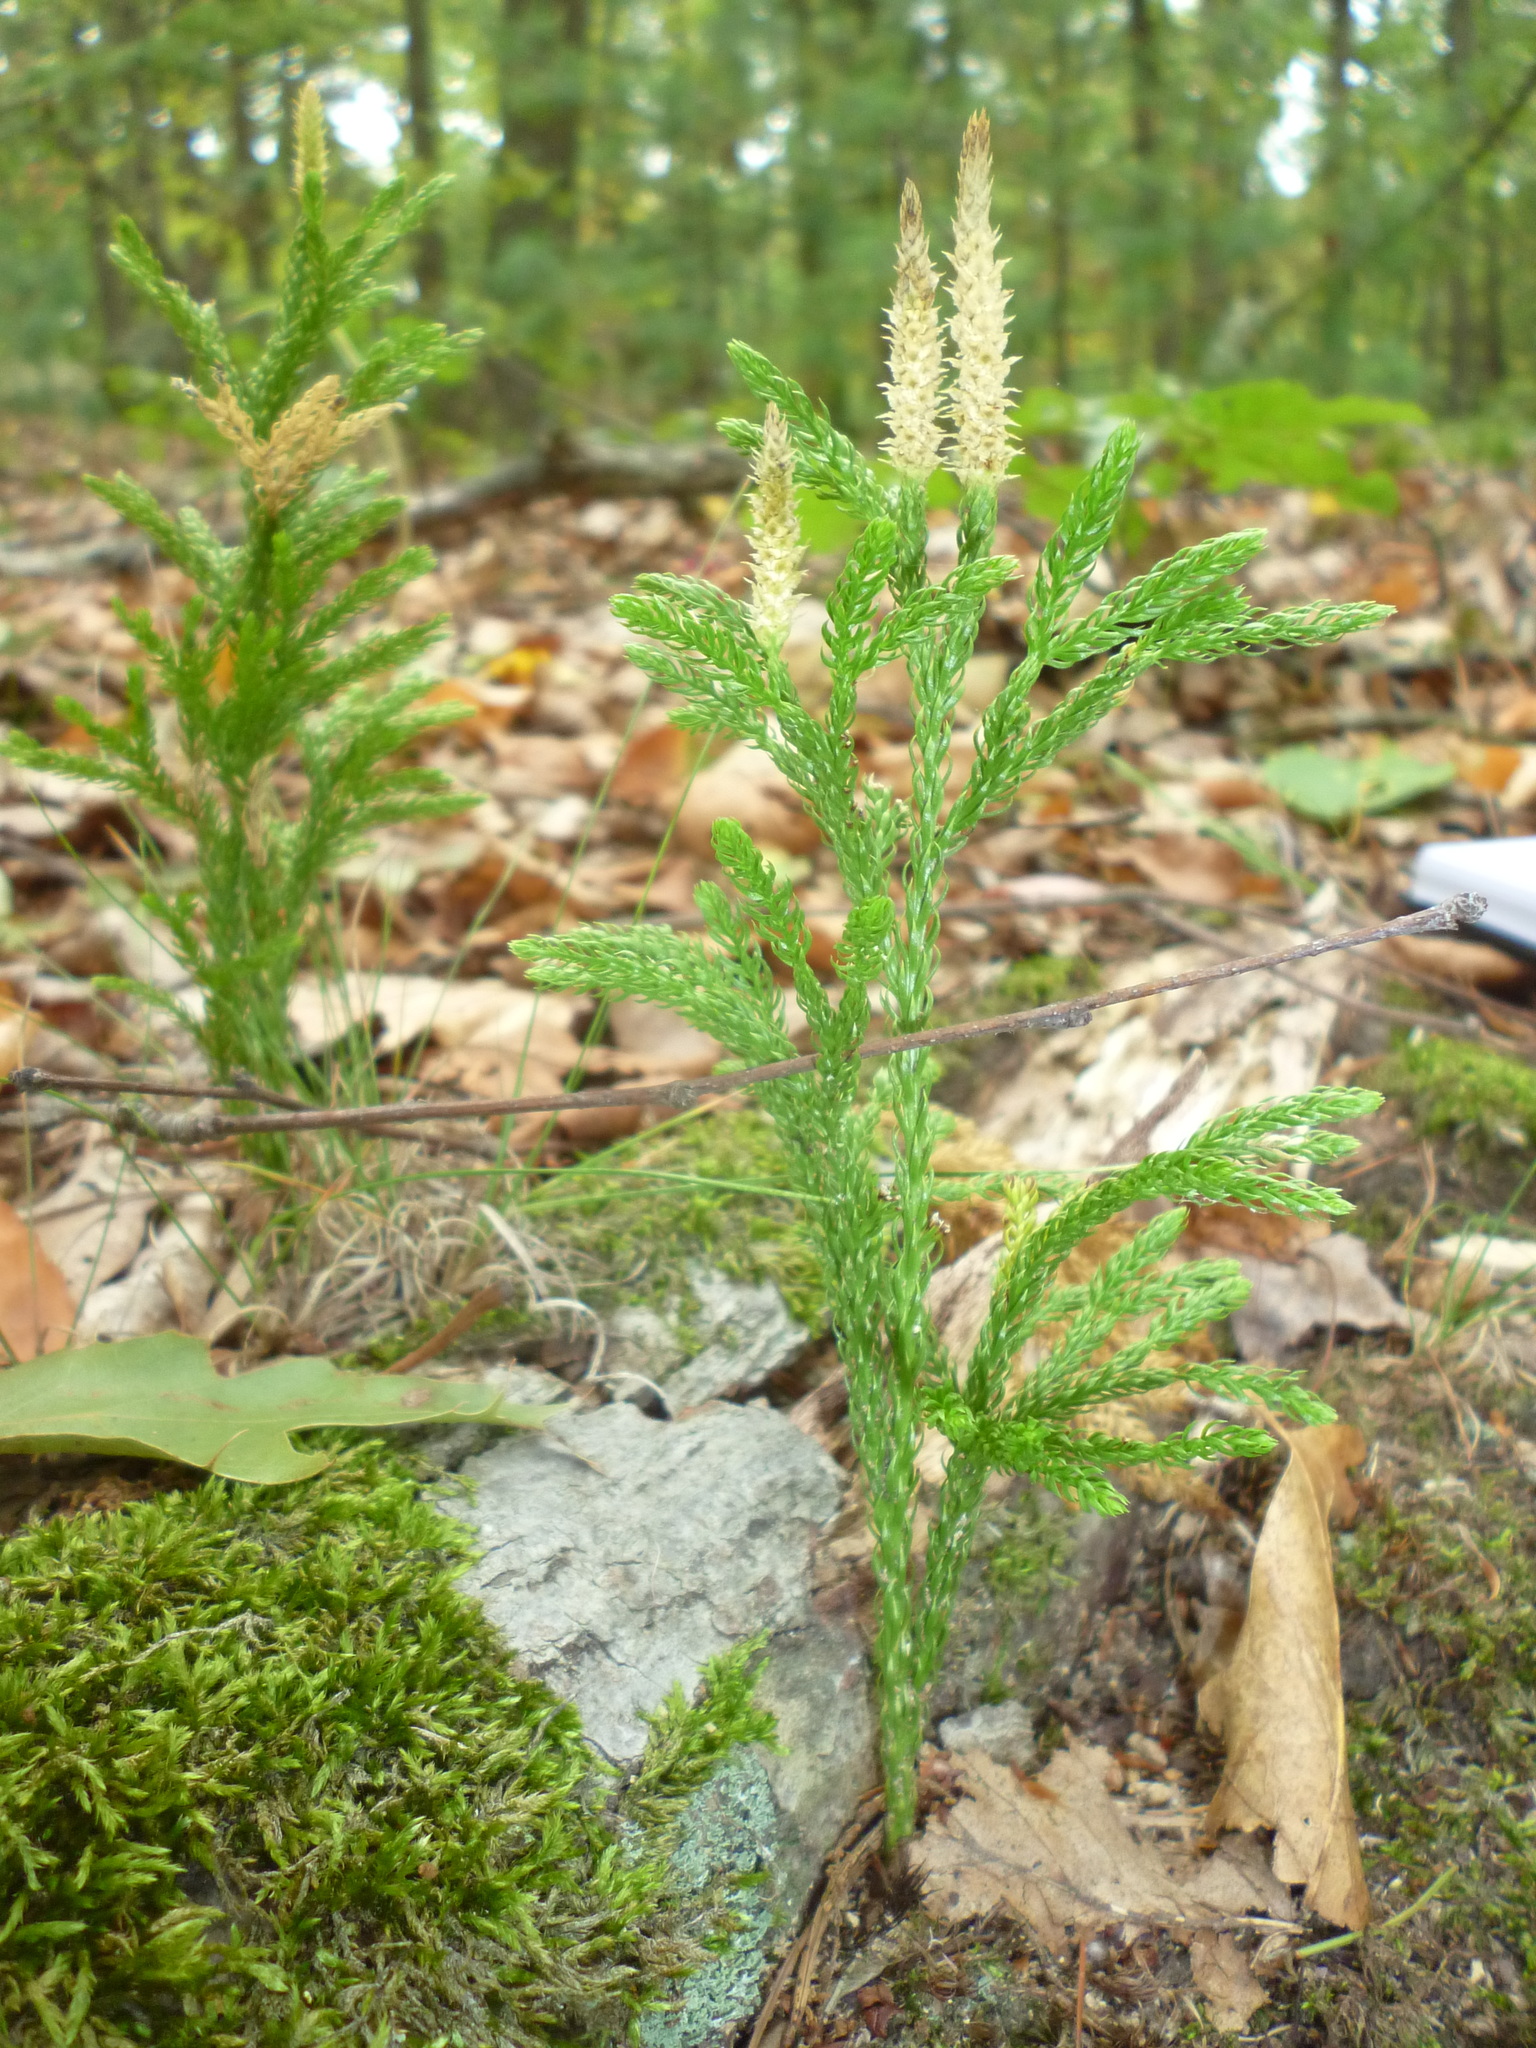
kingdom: Plantae
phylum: Tracheophyta
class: Lycopodiopsida
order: Lycopodiales
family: Lycopodiaceae
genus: Dendrolycopodium
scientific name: Dendrolycopodium hickeyi
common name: Hickey's clubmoss
